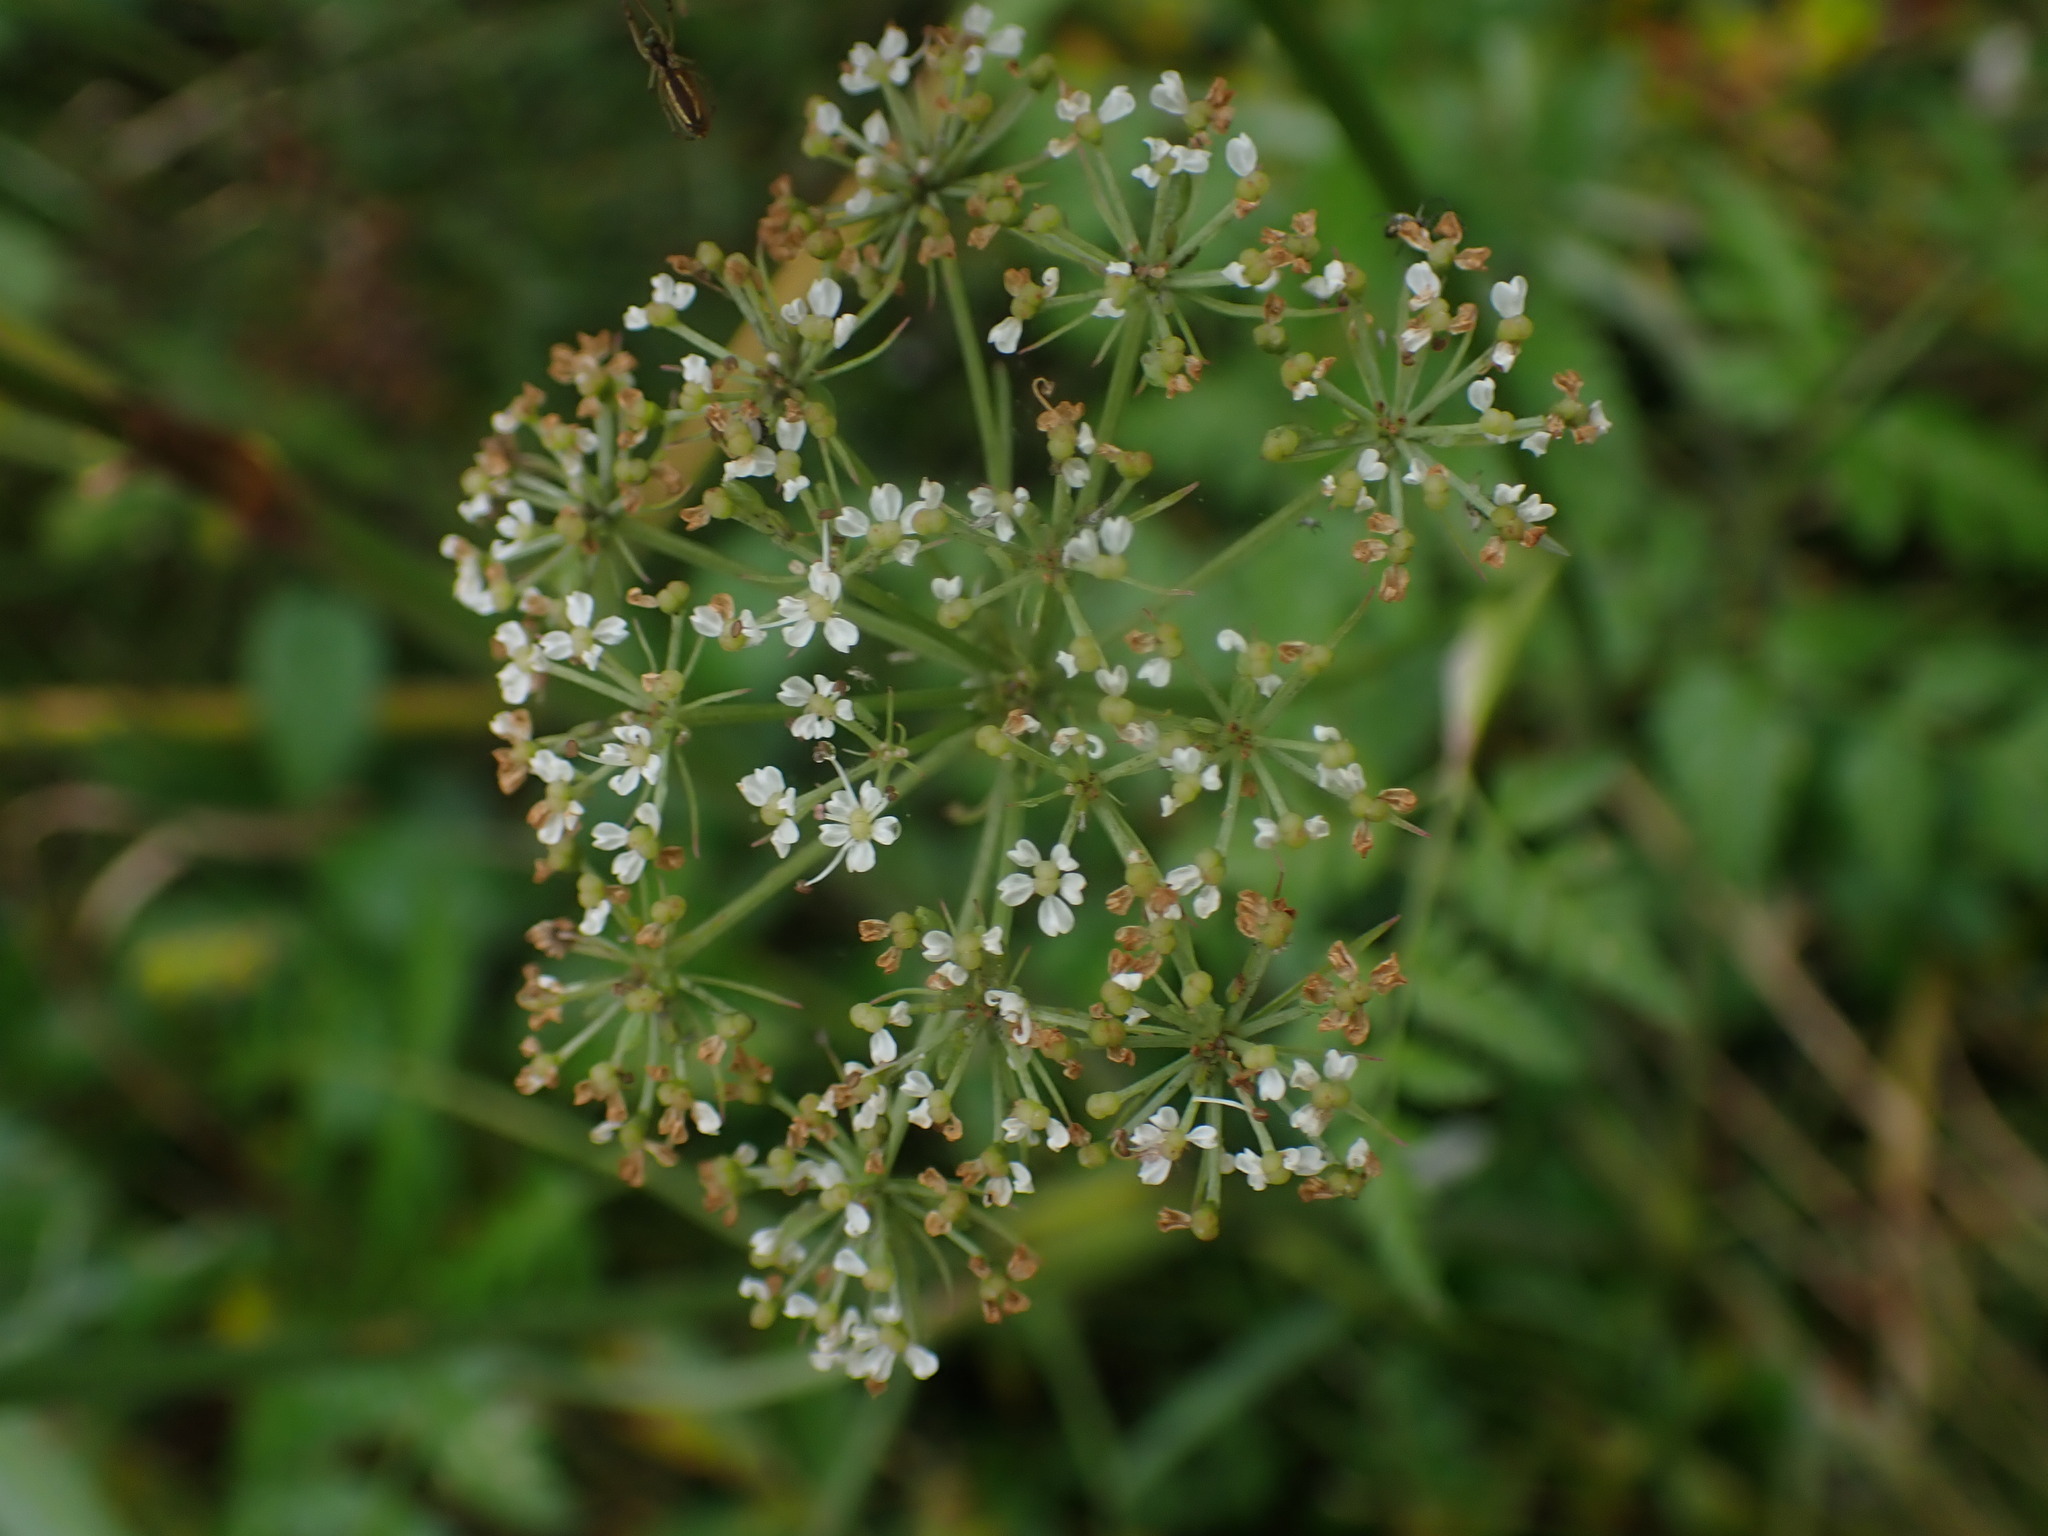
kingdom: Plantae
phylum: Tracheophyta
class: Magnoliopsida
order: Apiales
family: Apiaceae
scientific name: Apiaceae
